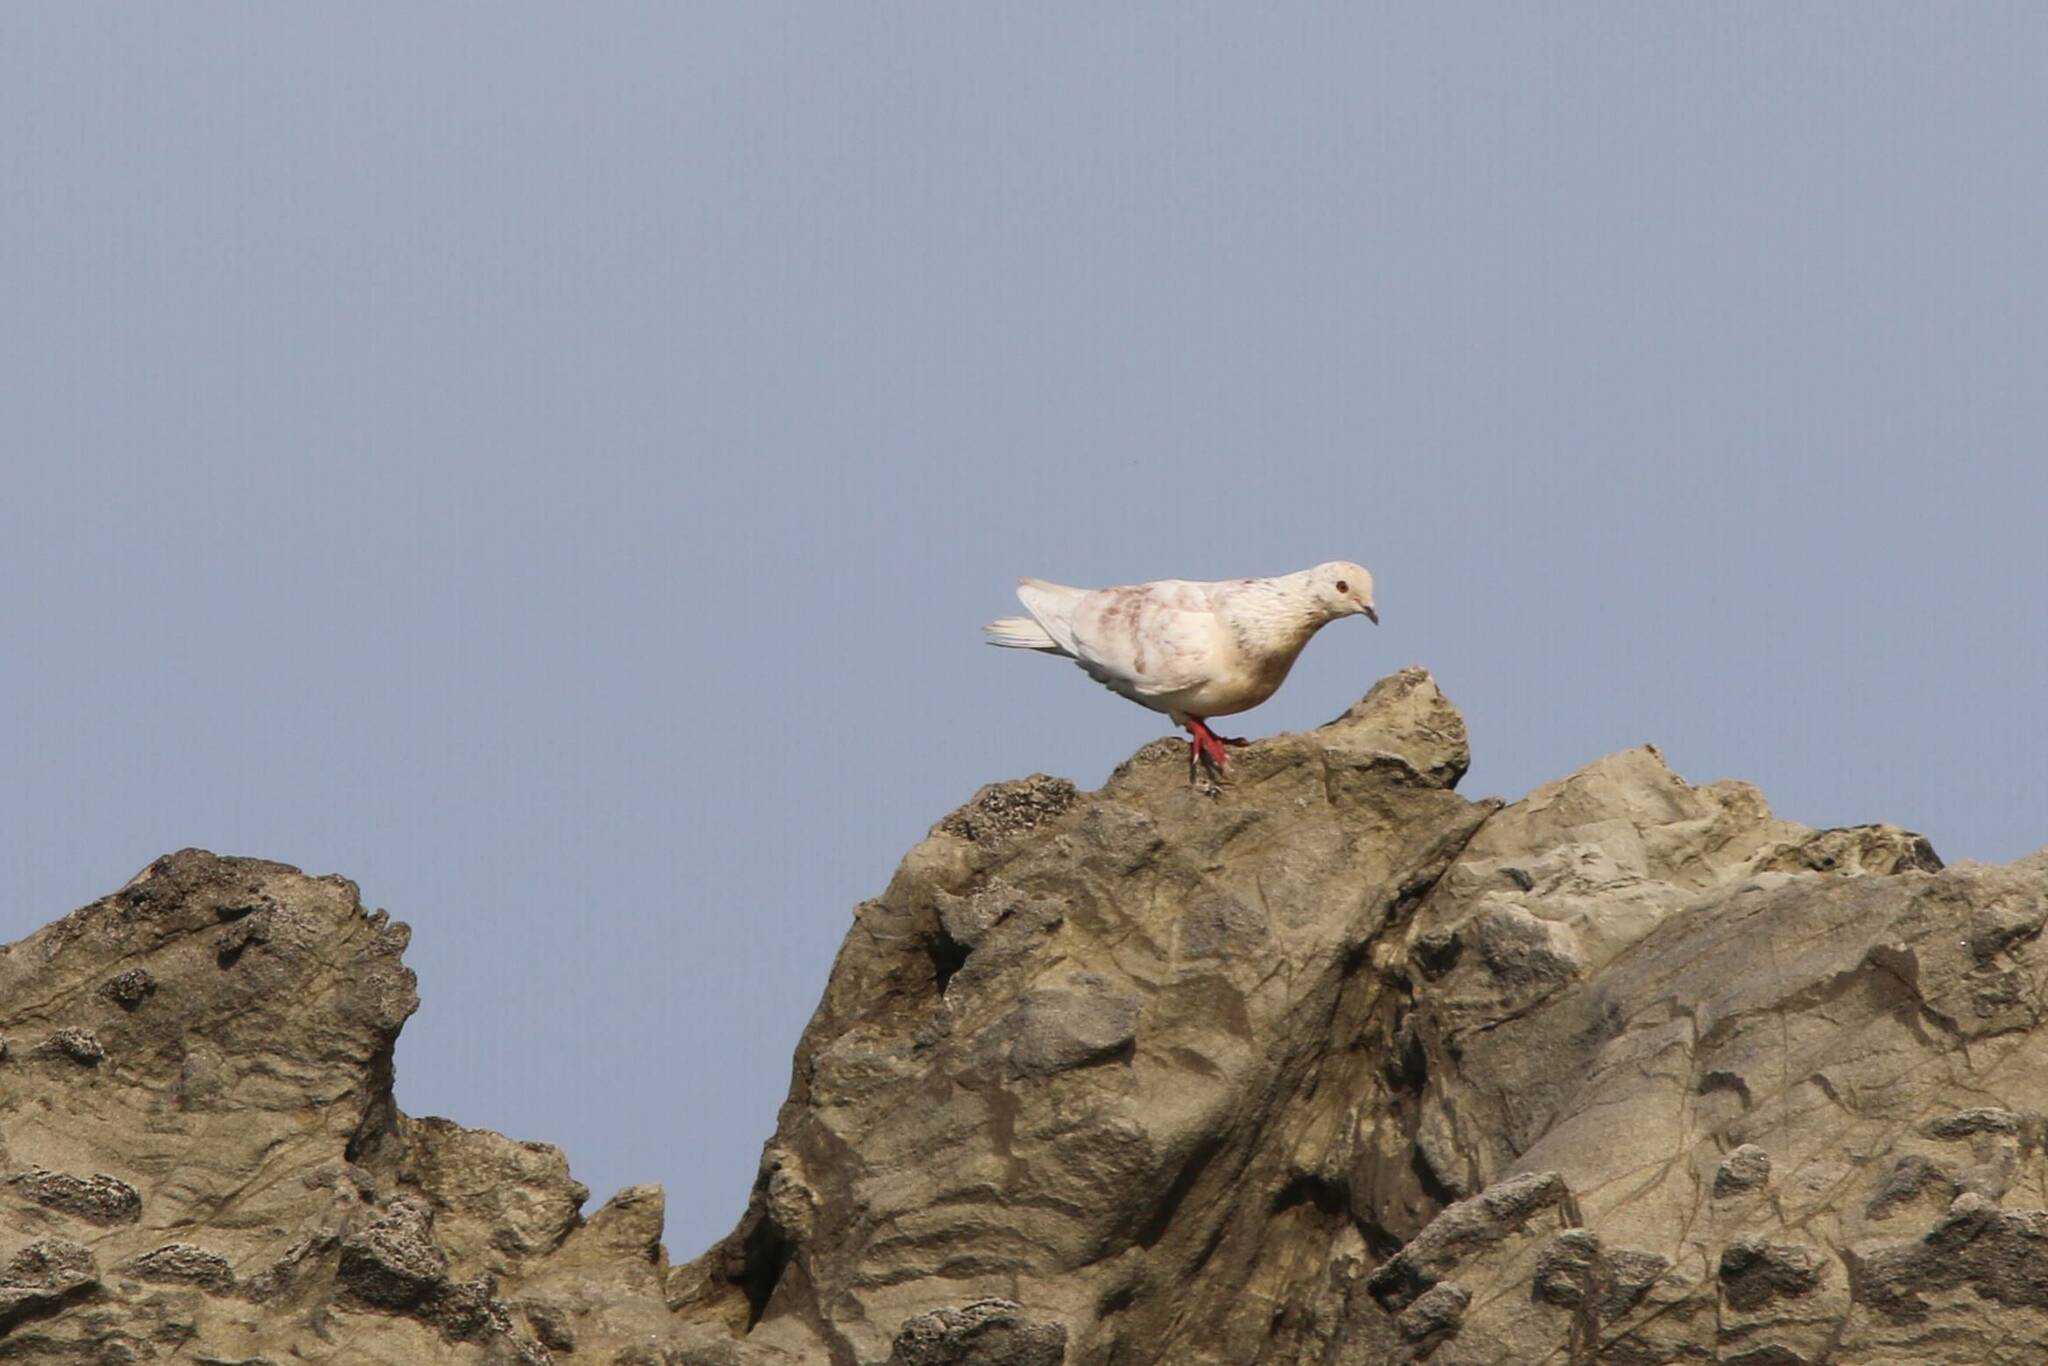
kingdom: Animalia
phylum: Chordata
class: Aves
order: Columbiformes
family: Columbidae
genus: Columba
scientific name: Columba livia
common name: Rock pigeon
